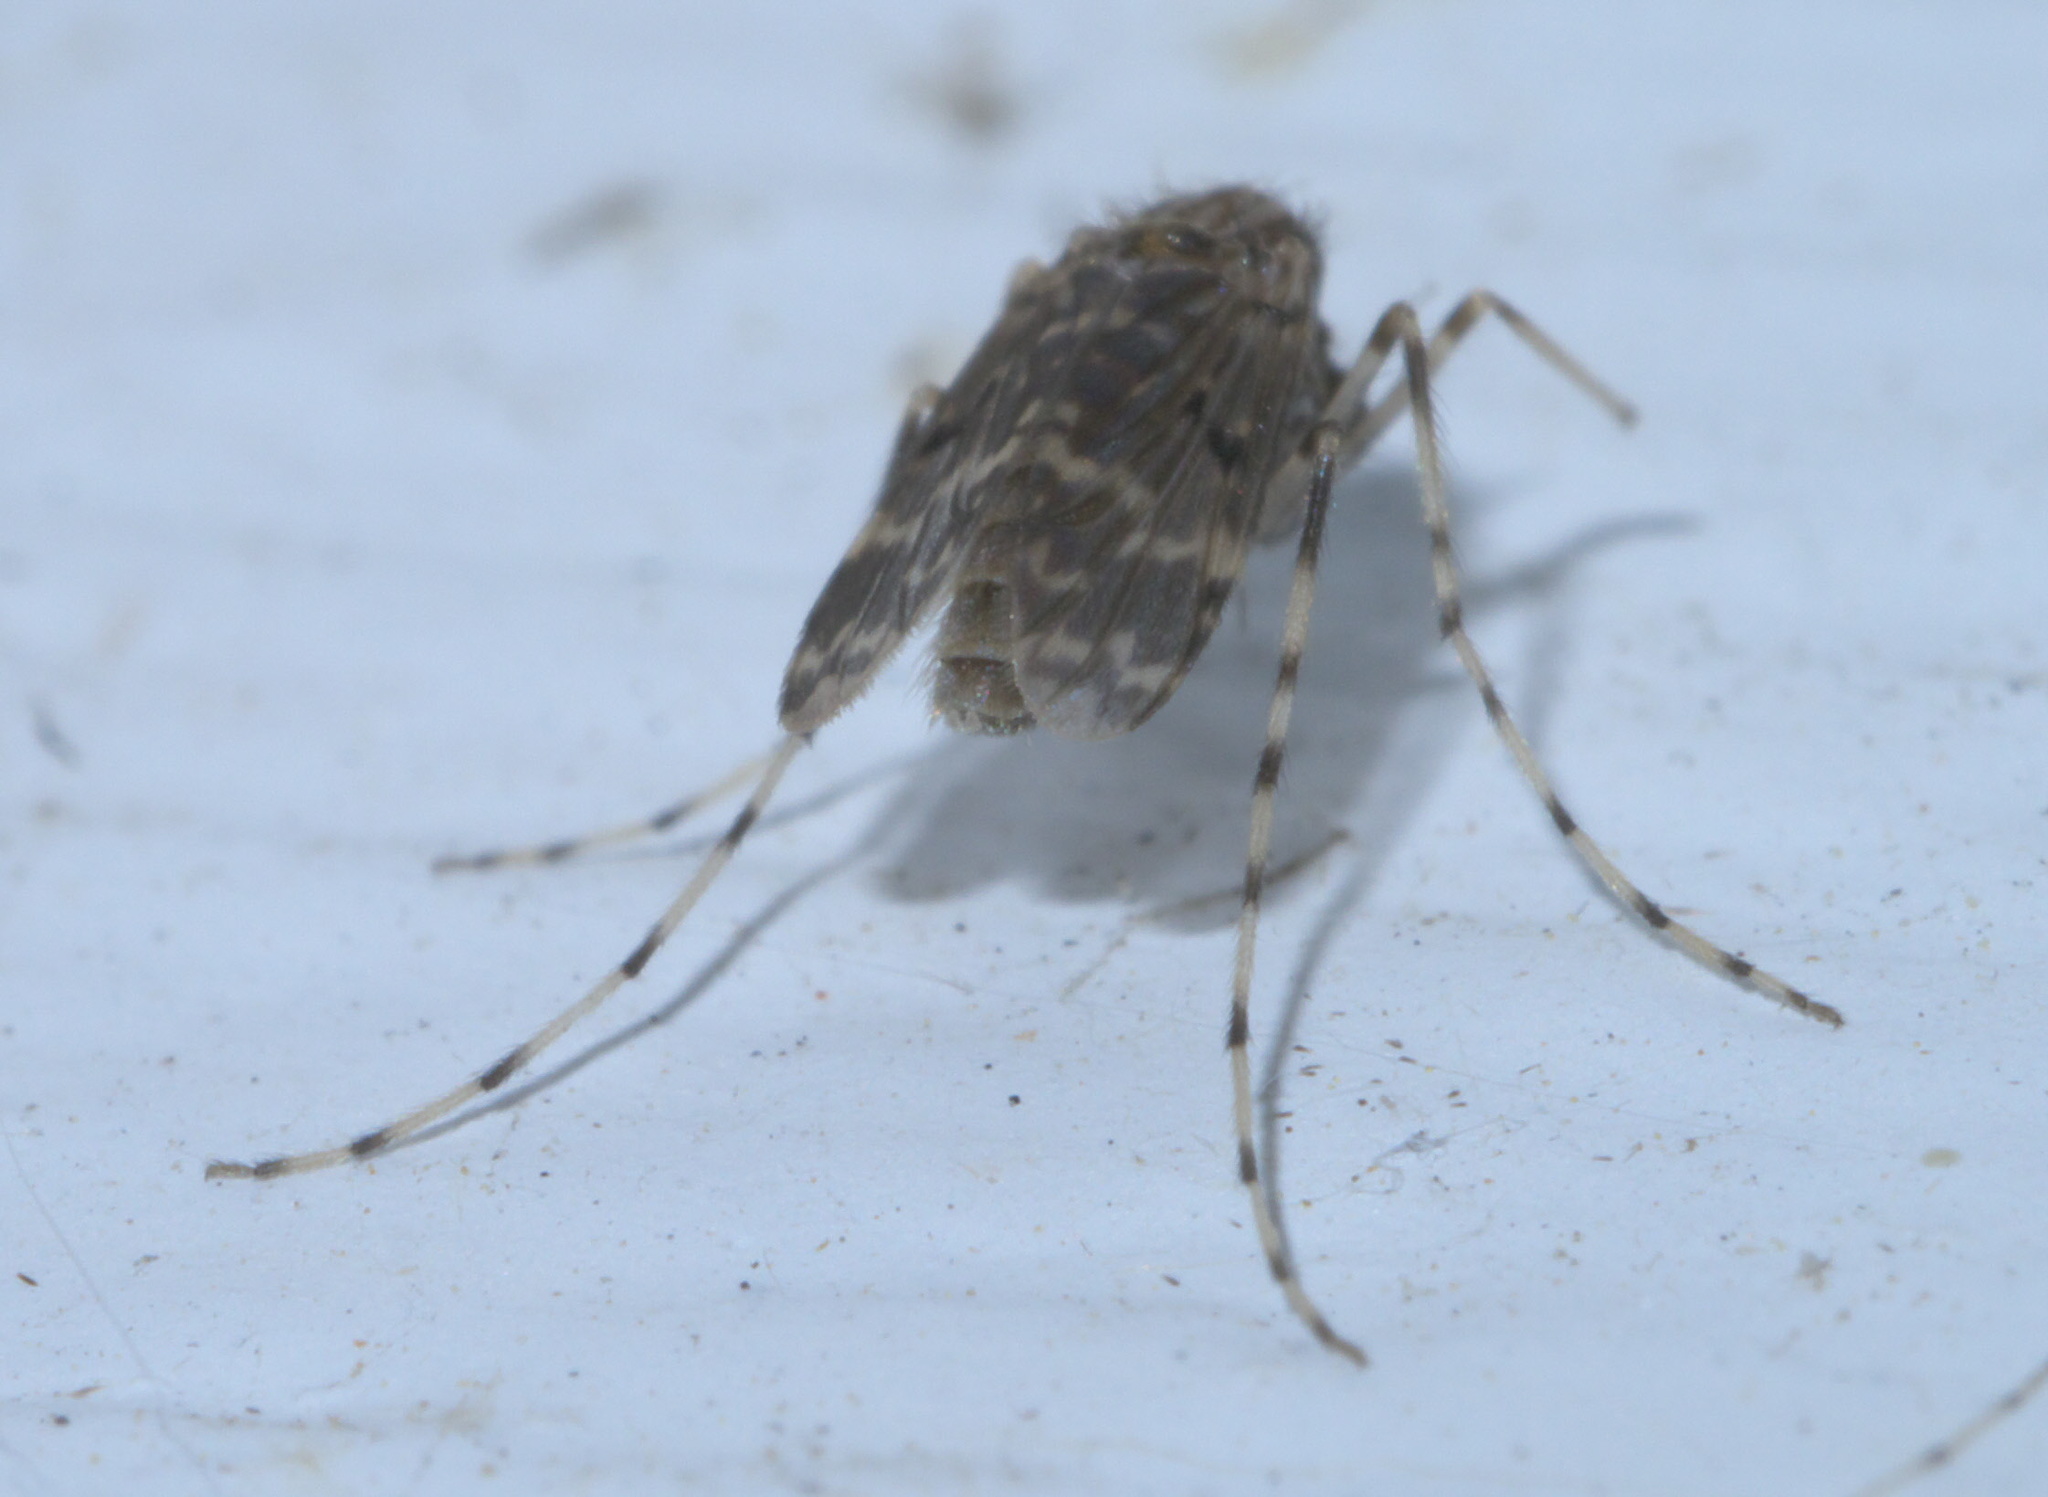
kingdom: Animalia
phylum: Arthropoda
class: Insecta
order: Diptera
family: Chironomidae
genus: Ablabesmyia
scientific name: Ablabesmyia annulata
